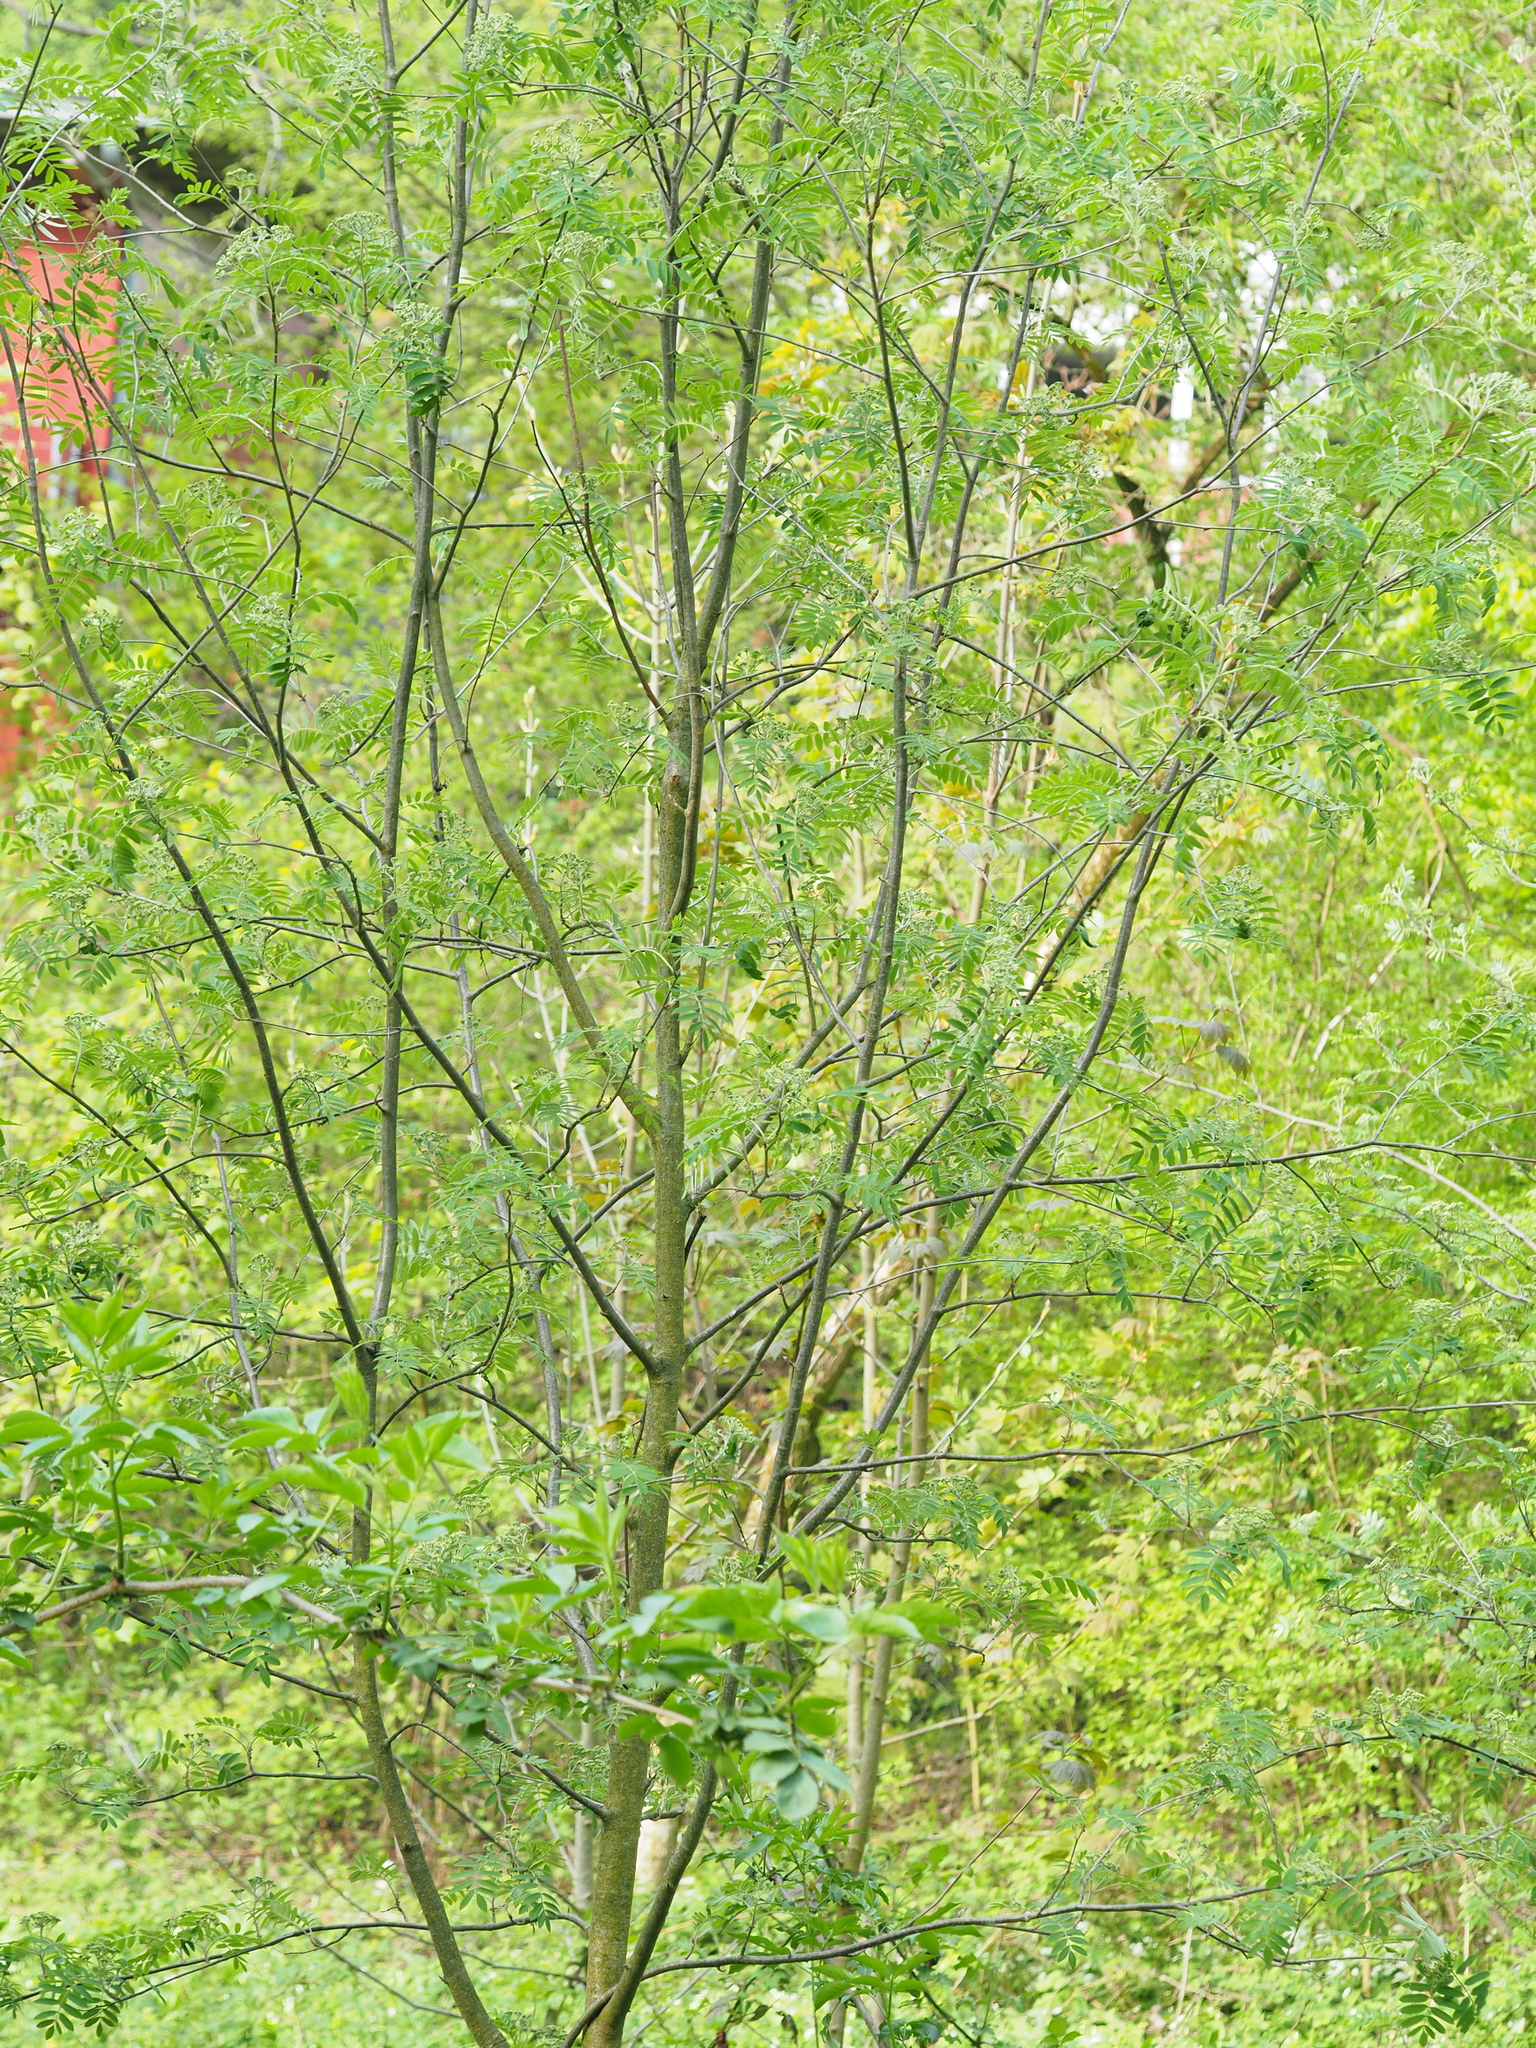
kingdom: Plantae
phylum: Tracheophyta
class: Magnoliopsida
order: Rosales
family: Rosaceae
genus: Sorbus
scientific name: Sorbus aucuparia
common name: Rowan
